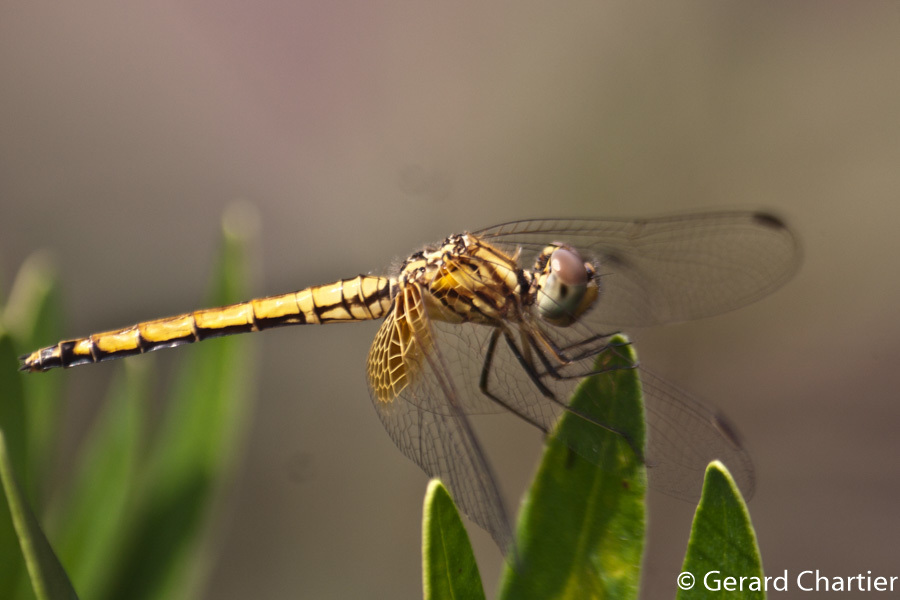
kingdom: Animalia
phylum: Arthropoda
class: Insecta
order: Odonata
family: Libellulidae
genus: Trithemis
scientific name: Trithemis aurora
